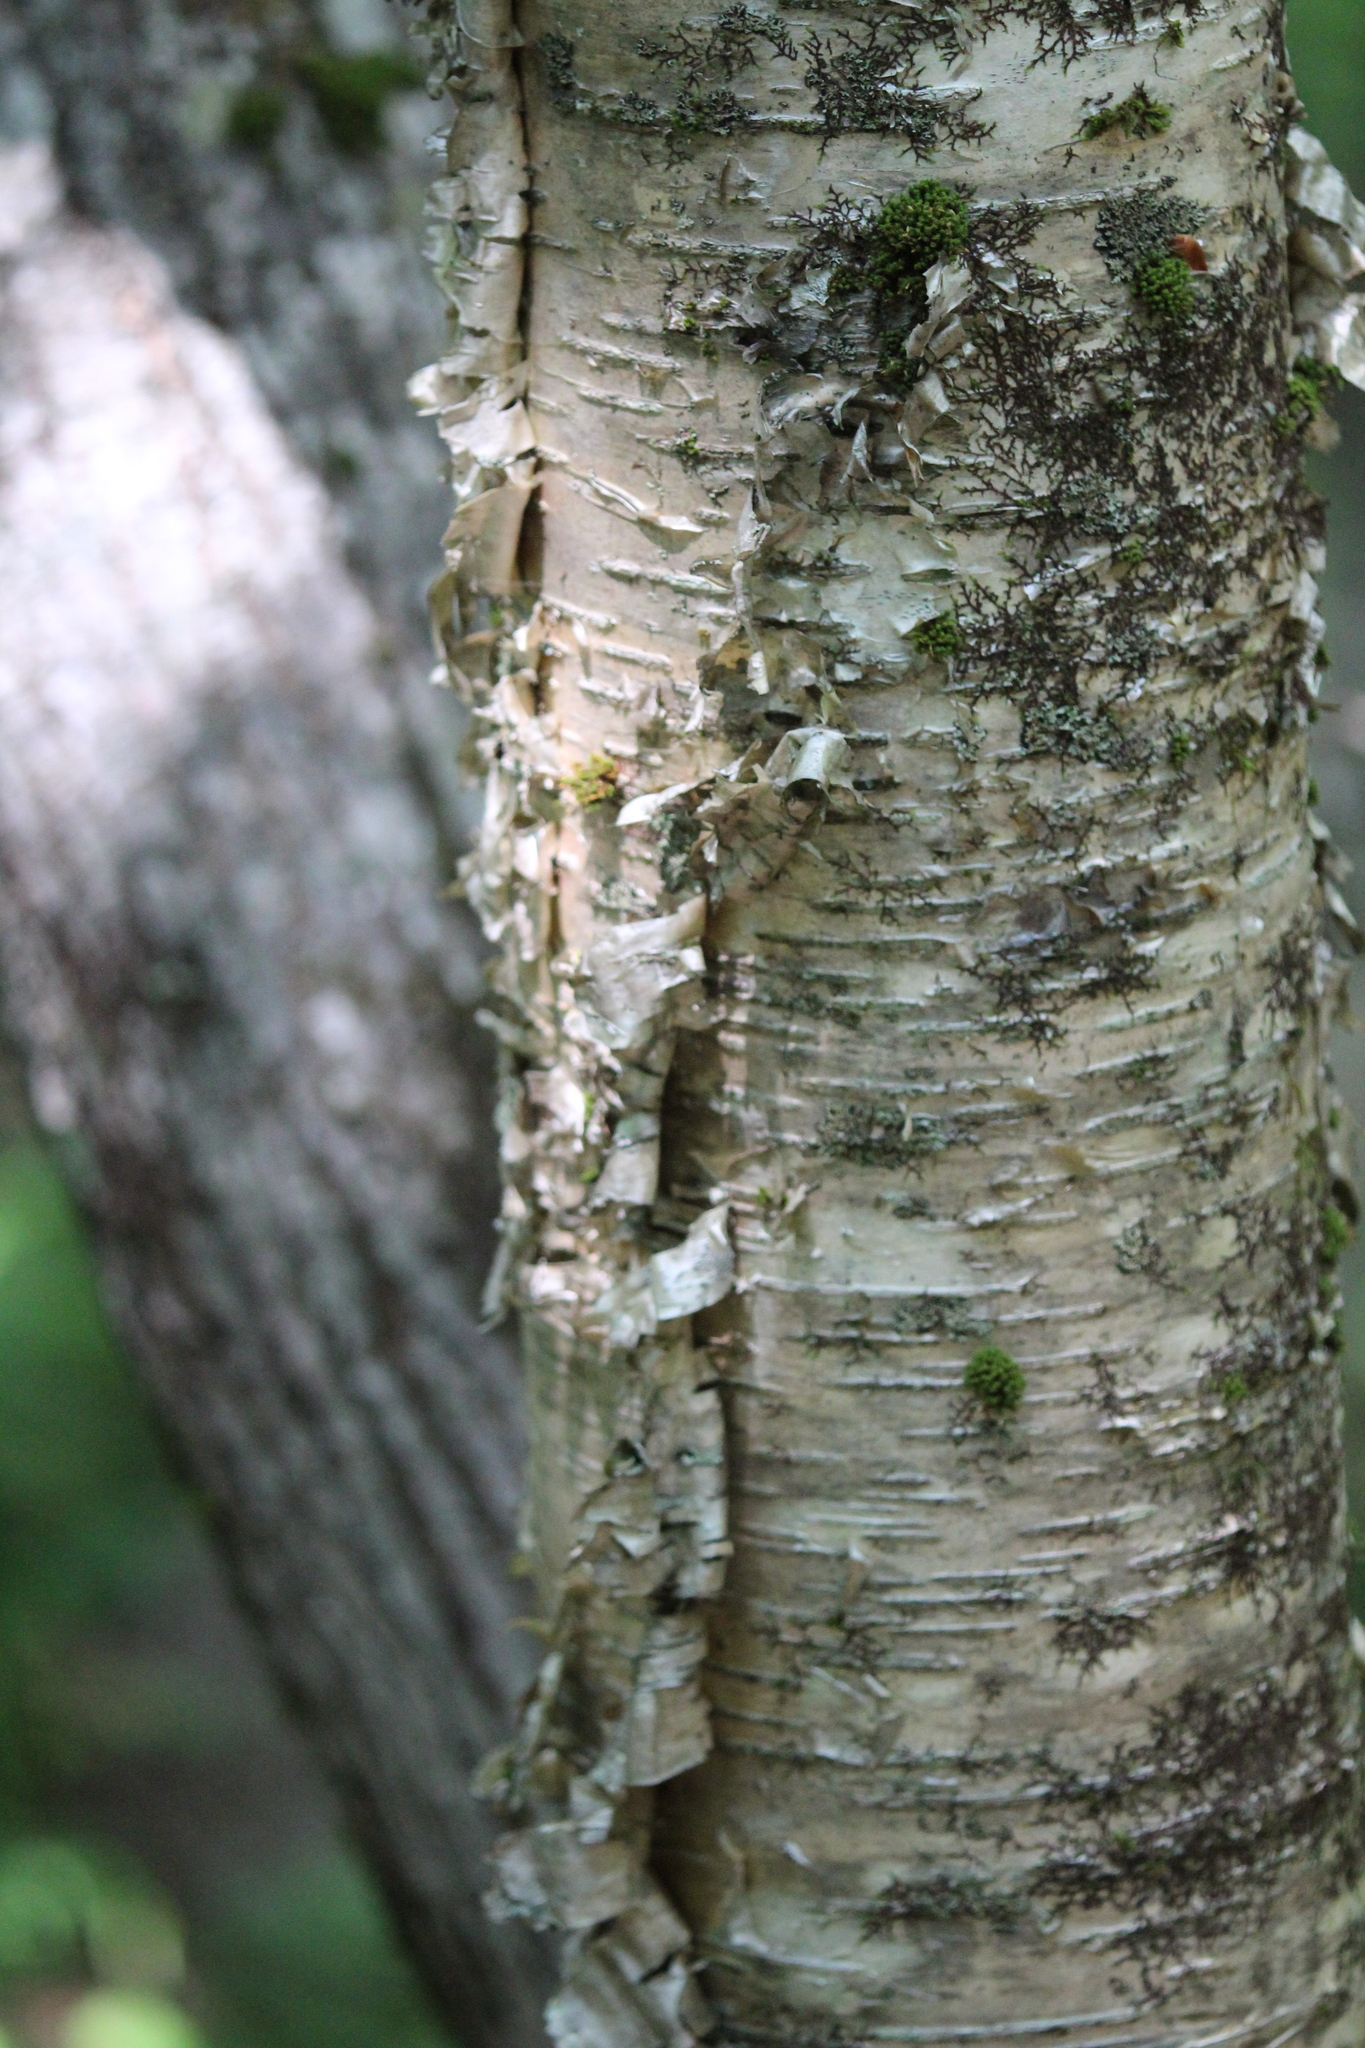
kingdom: Plantae
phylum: Tracheophyta
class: Magnoliopsida
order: Fagales
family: Betulaceae
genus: Betula
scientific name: Betula alleghaniensis
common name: Yellow birch
